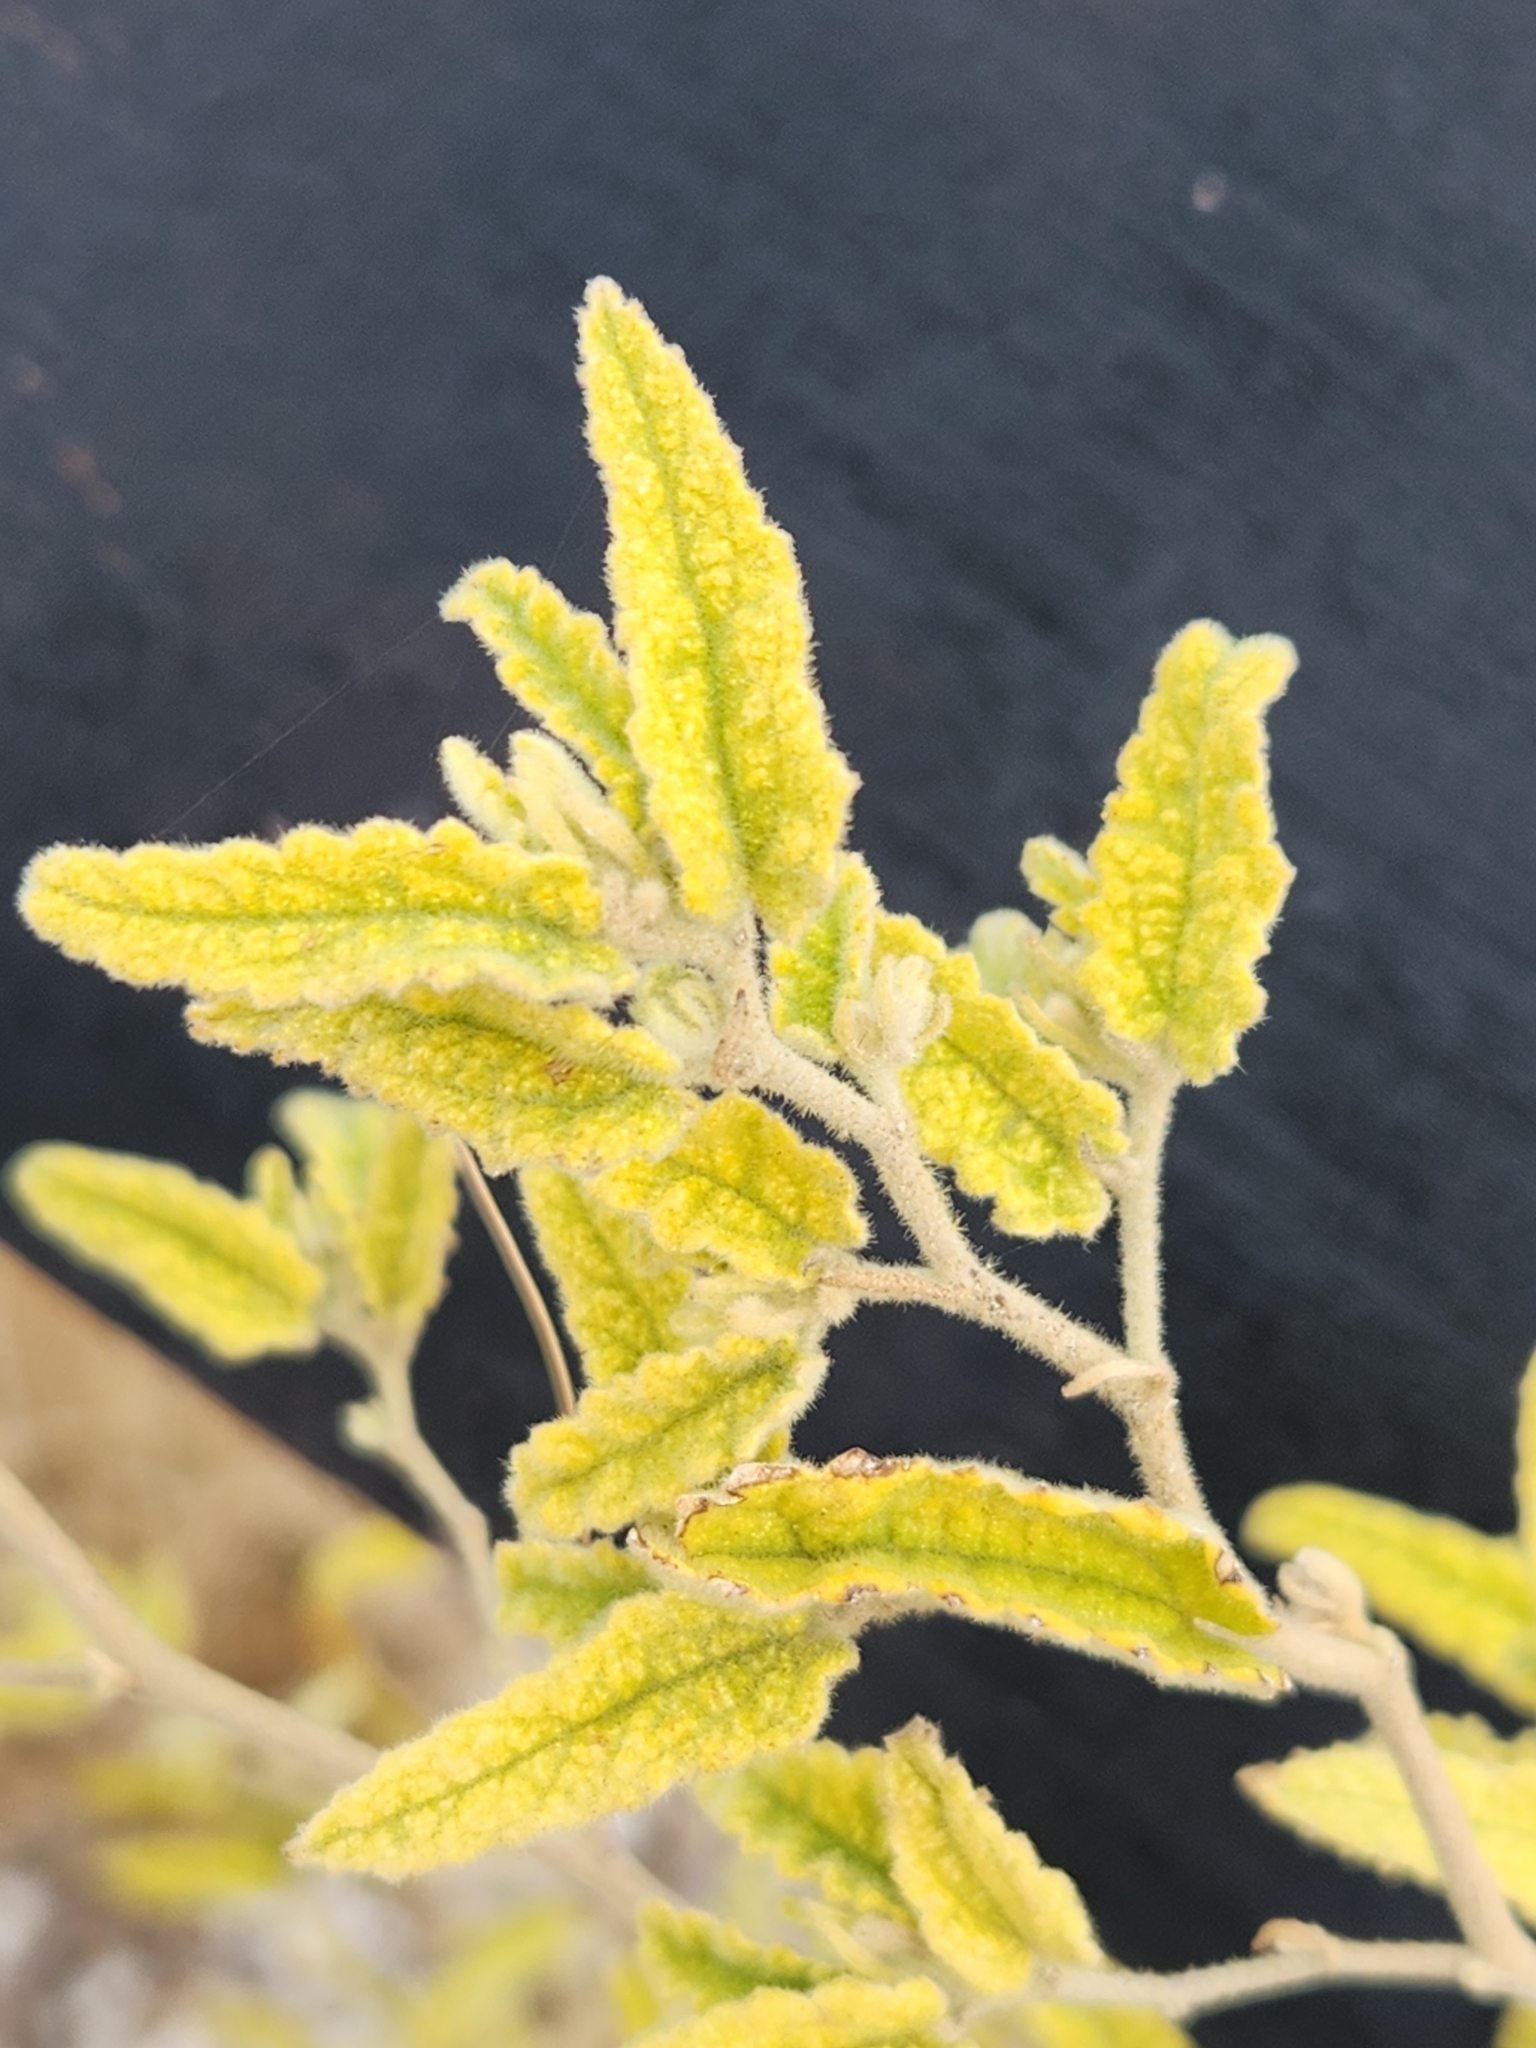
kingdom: Plantae
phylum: Tracheophyta
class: Magnoliopsida
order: Malvales
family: Malvaceae
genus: Meximalva
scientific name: Meximalva filipes
